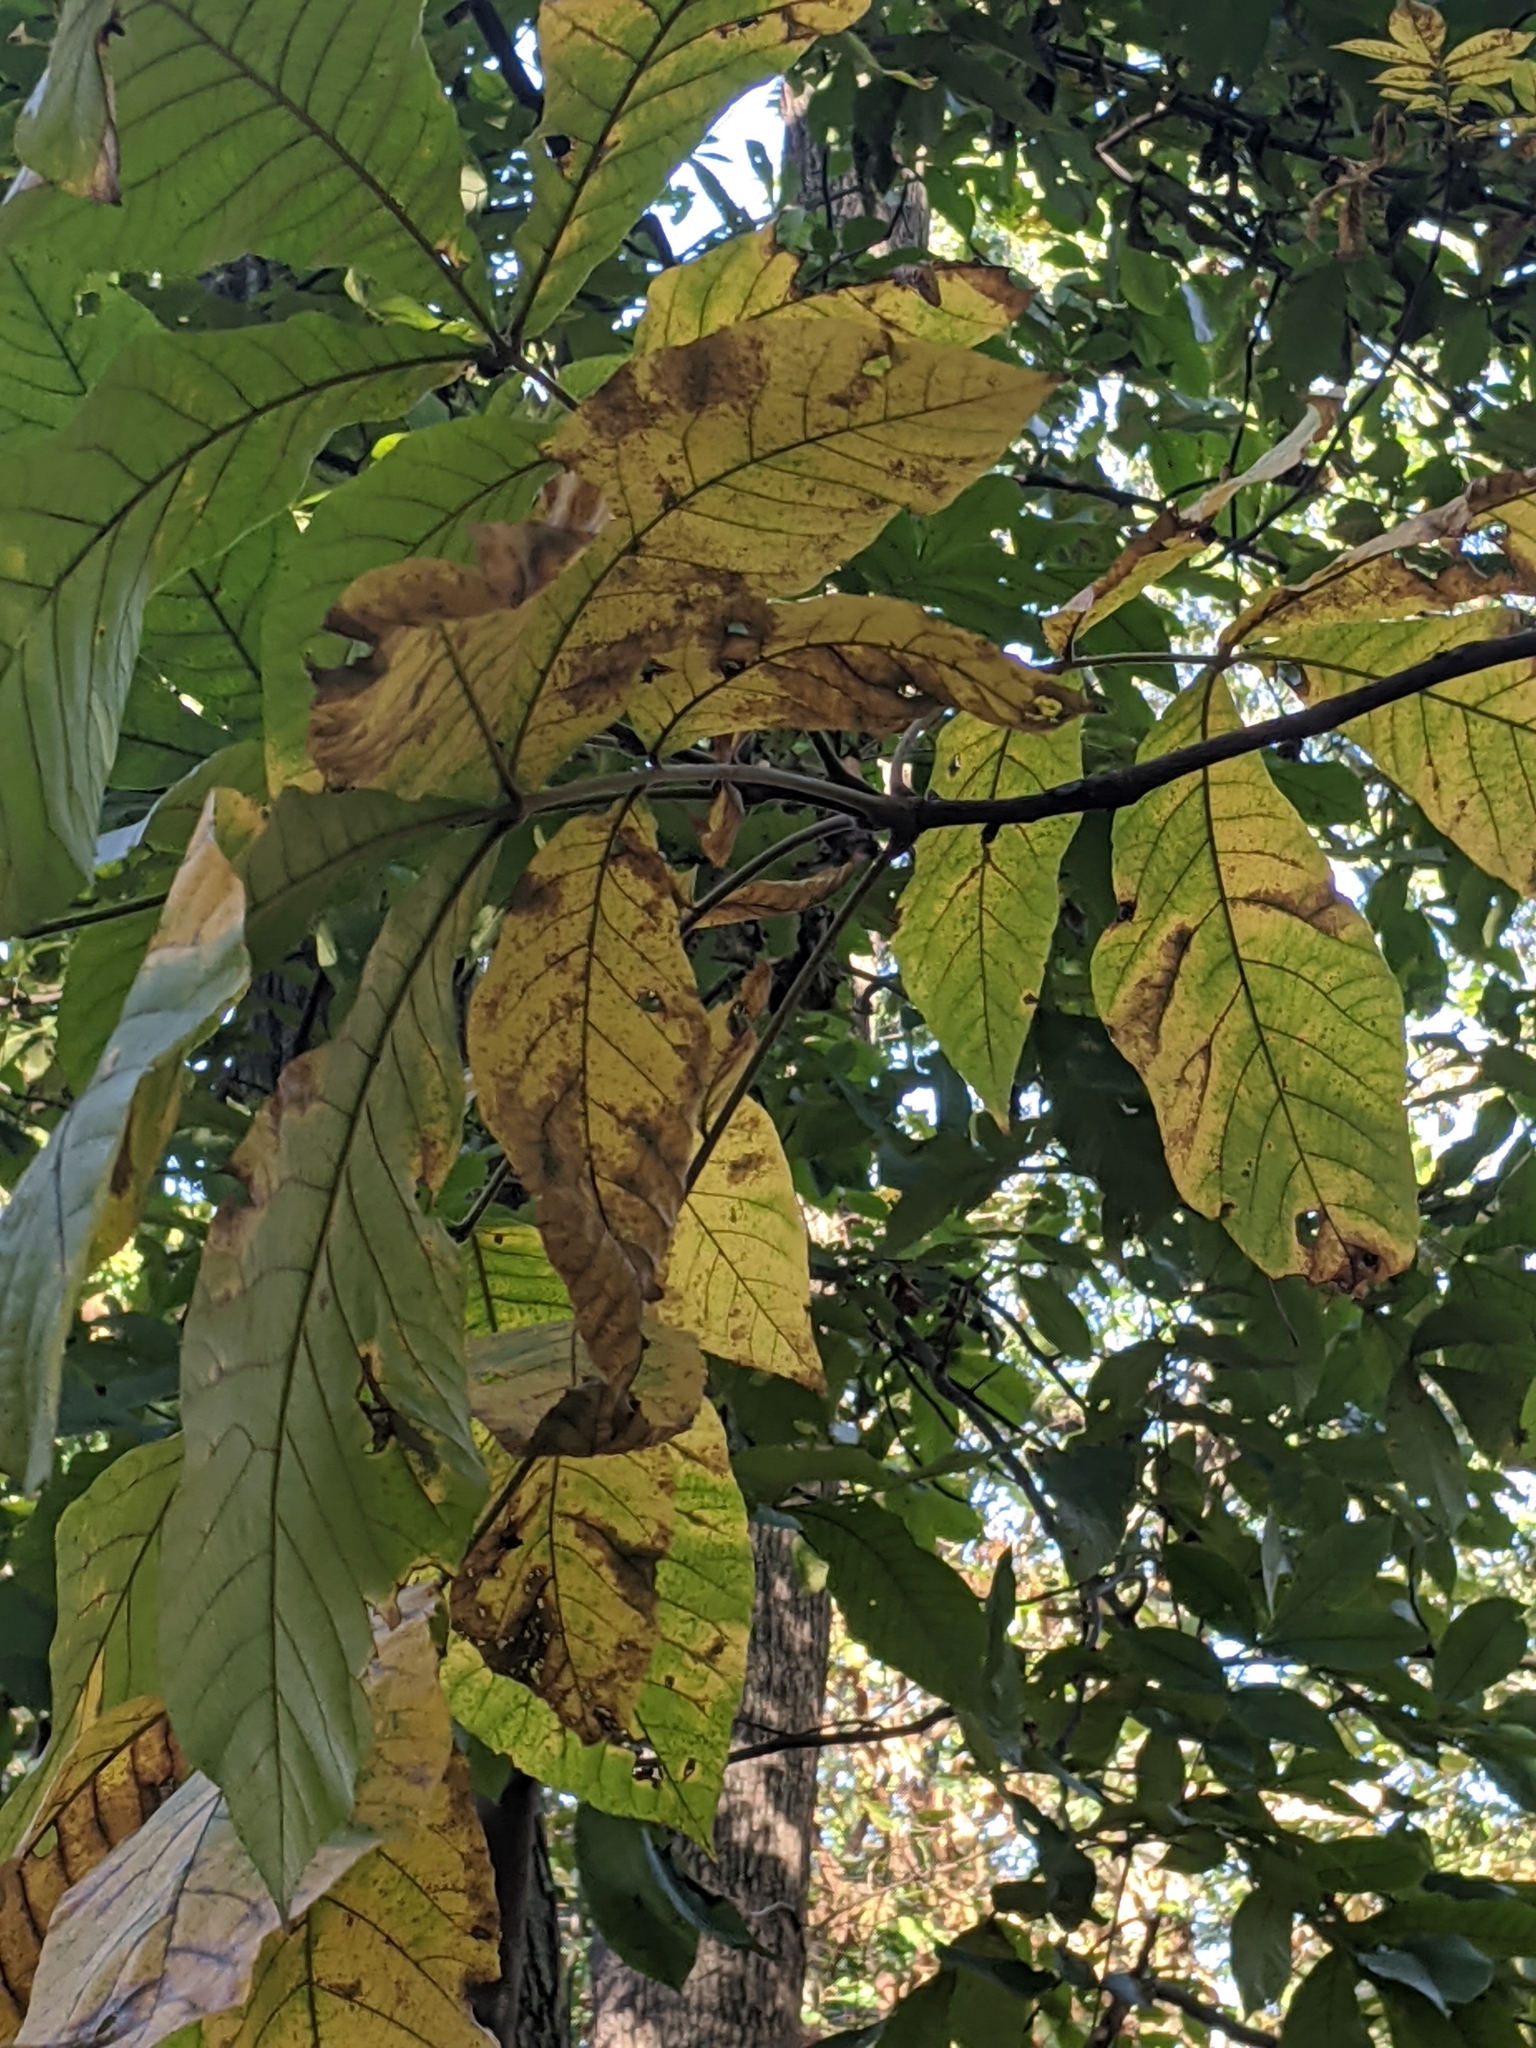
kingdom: Plantae
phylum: Tracheophyta
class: Magnoliopsida
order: Fagales
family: Juglandaceae
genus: Carya
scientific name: Carya alba
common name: Mockernut hickory
